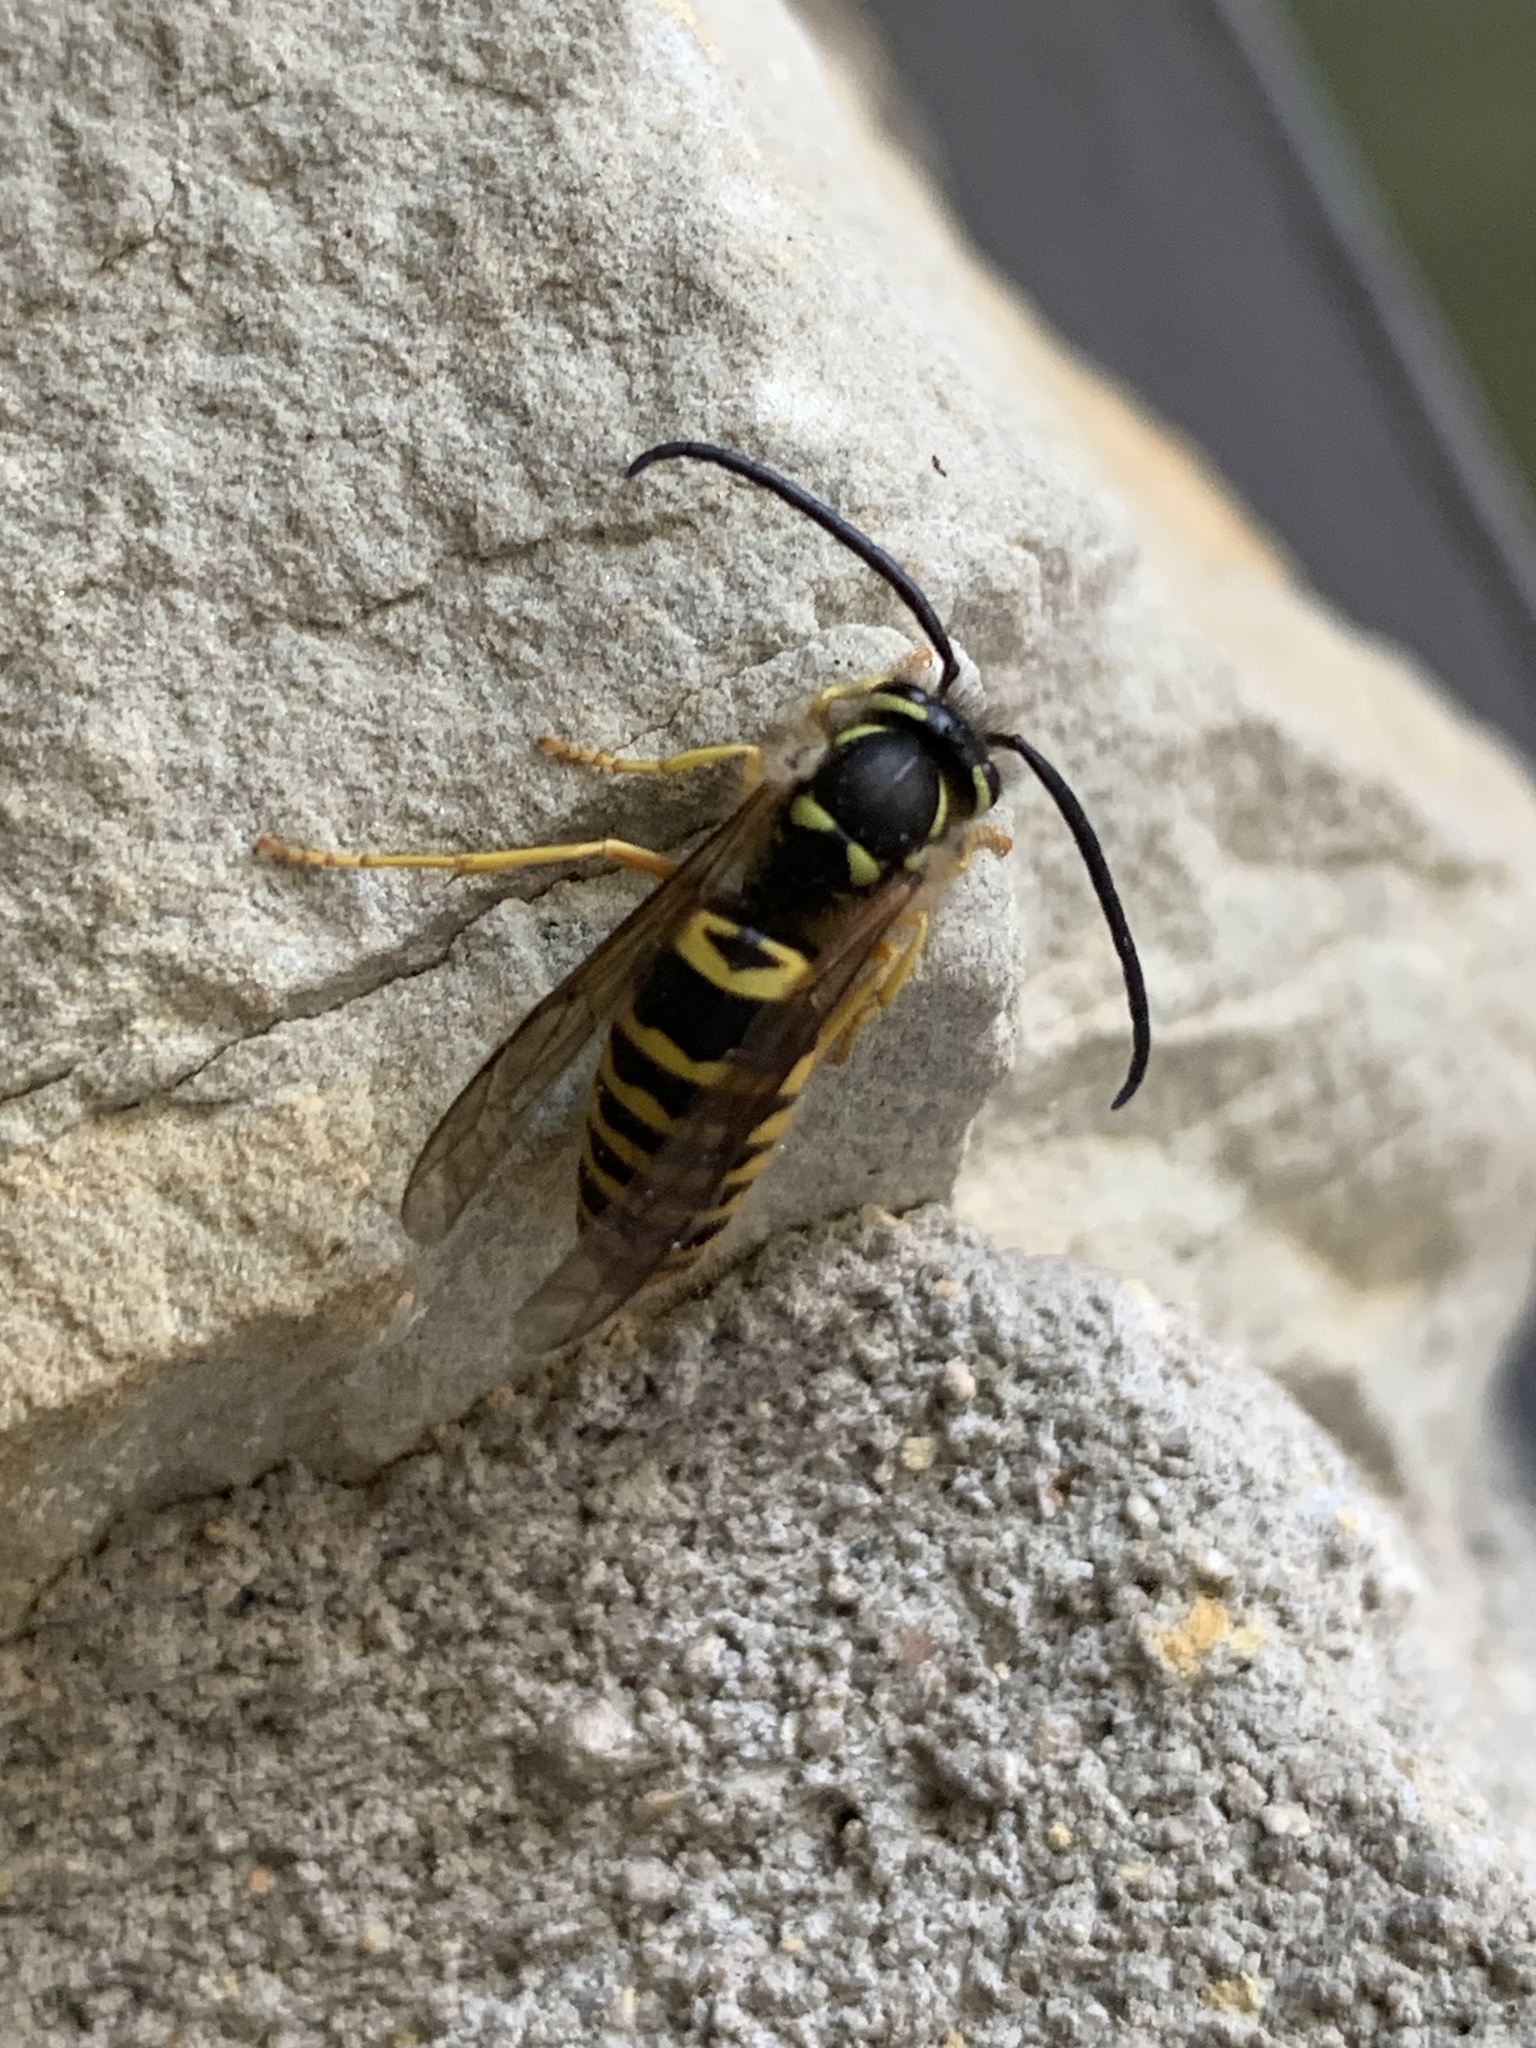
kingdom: Animalia
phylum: Arthropoda
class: Insecta
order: Hymenoptera
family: Vespidae
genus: Vespula
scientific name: Vespula maculifrons
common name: Eastern yellowjacket
